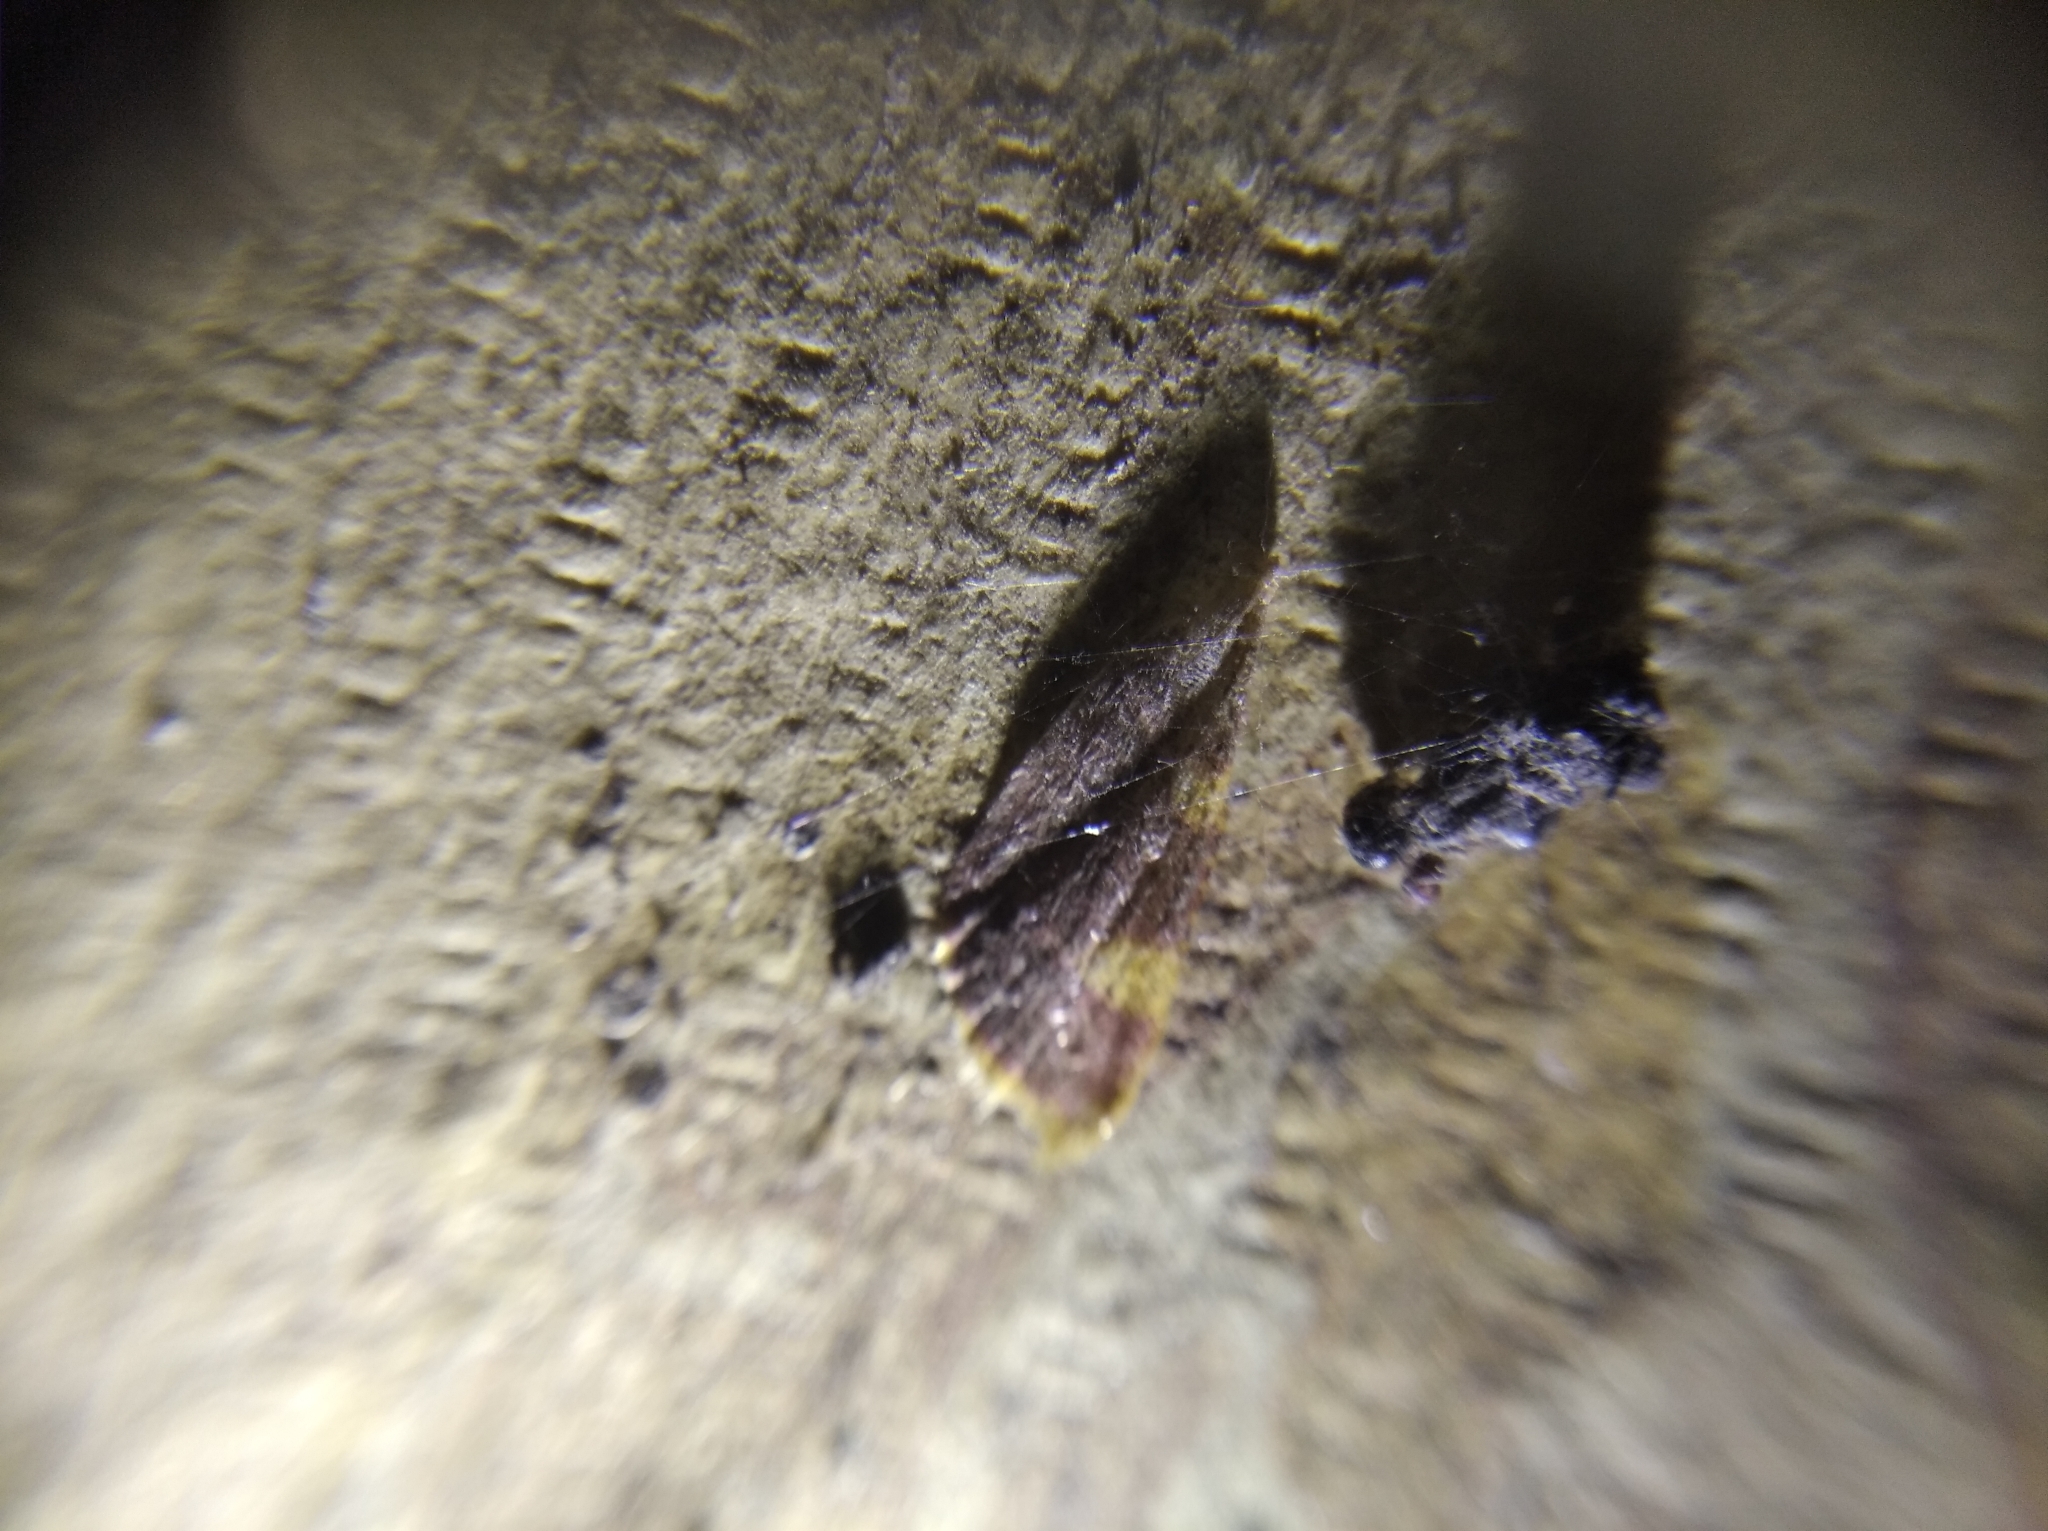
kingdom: Animalia
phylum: Arthropoda
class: Insecta
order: Lepidoptera
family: Pyralidae
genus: Hypsopygia
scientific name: Hypsopygia costalis
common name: Gold triangle
